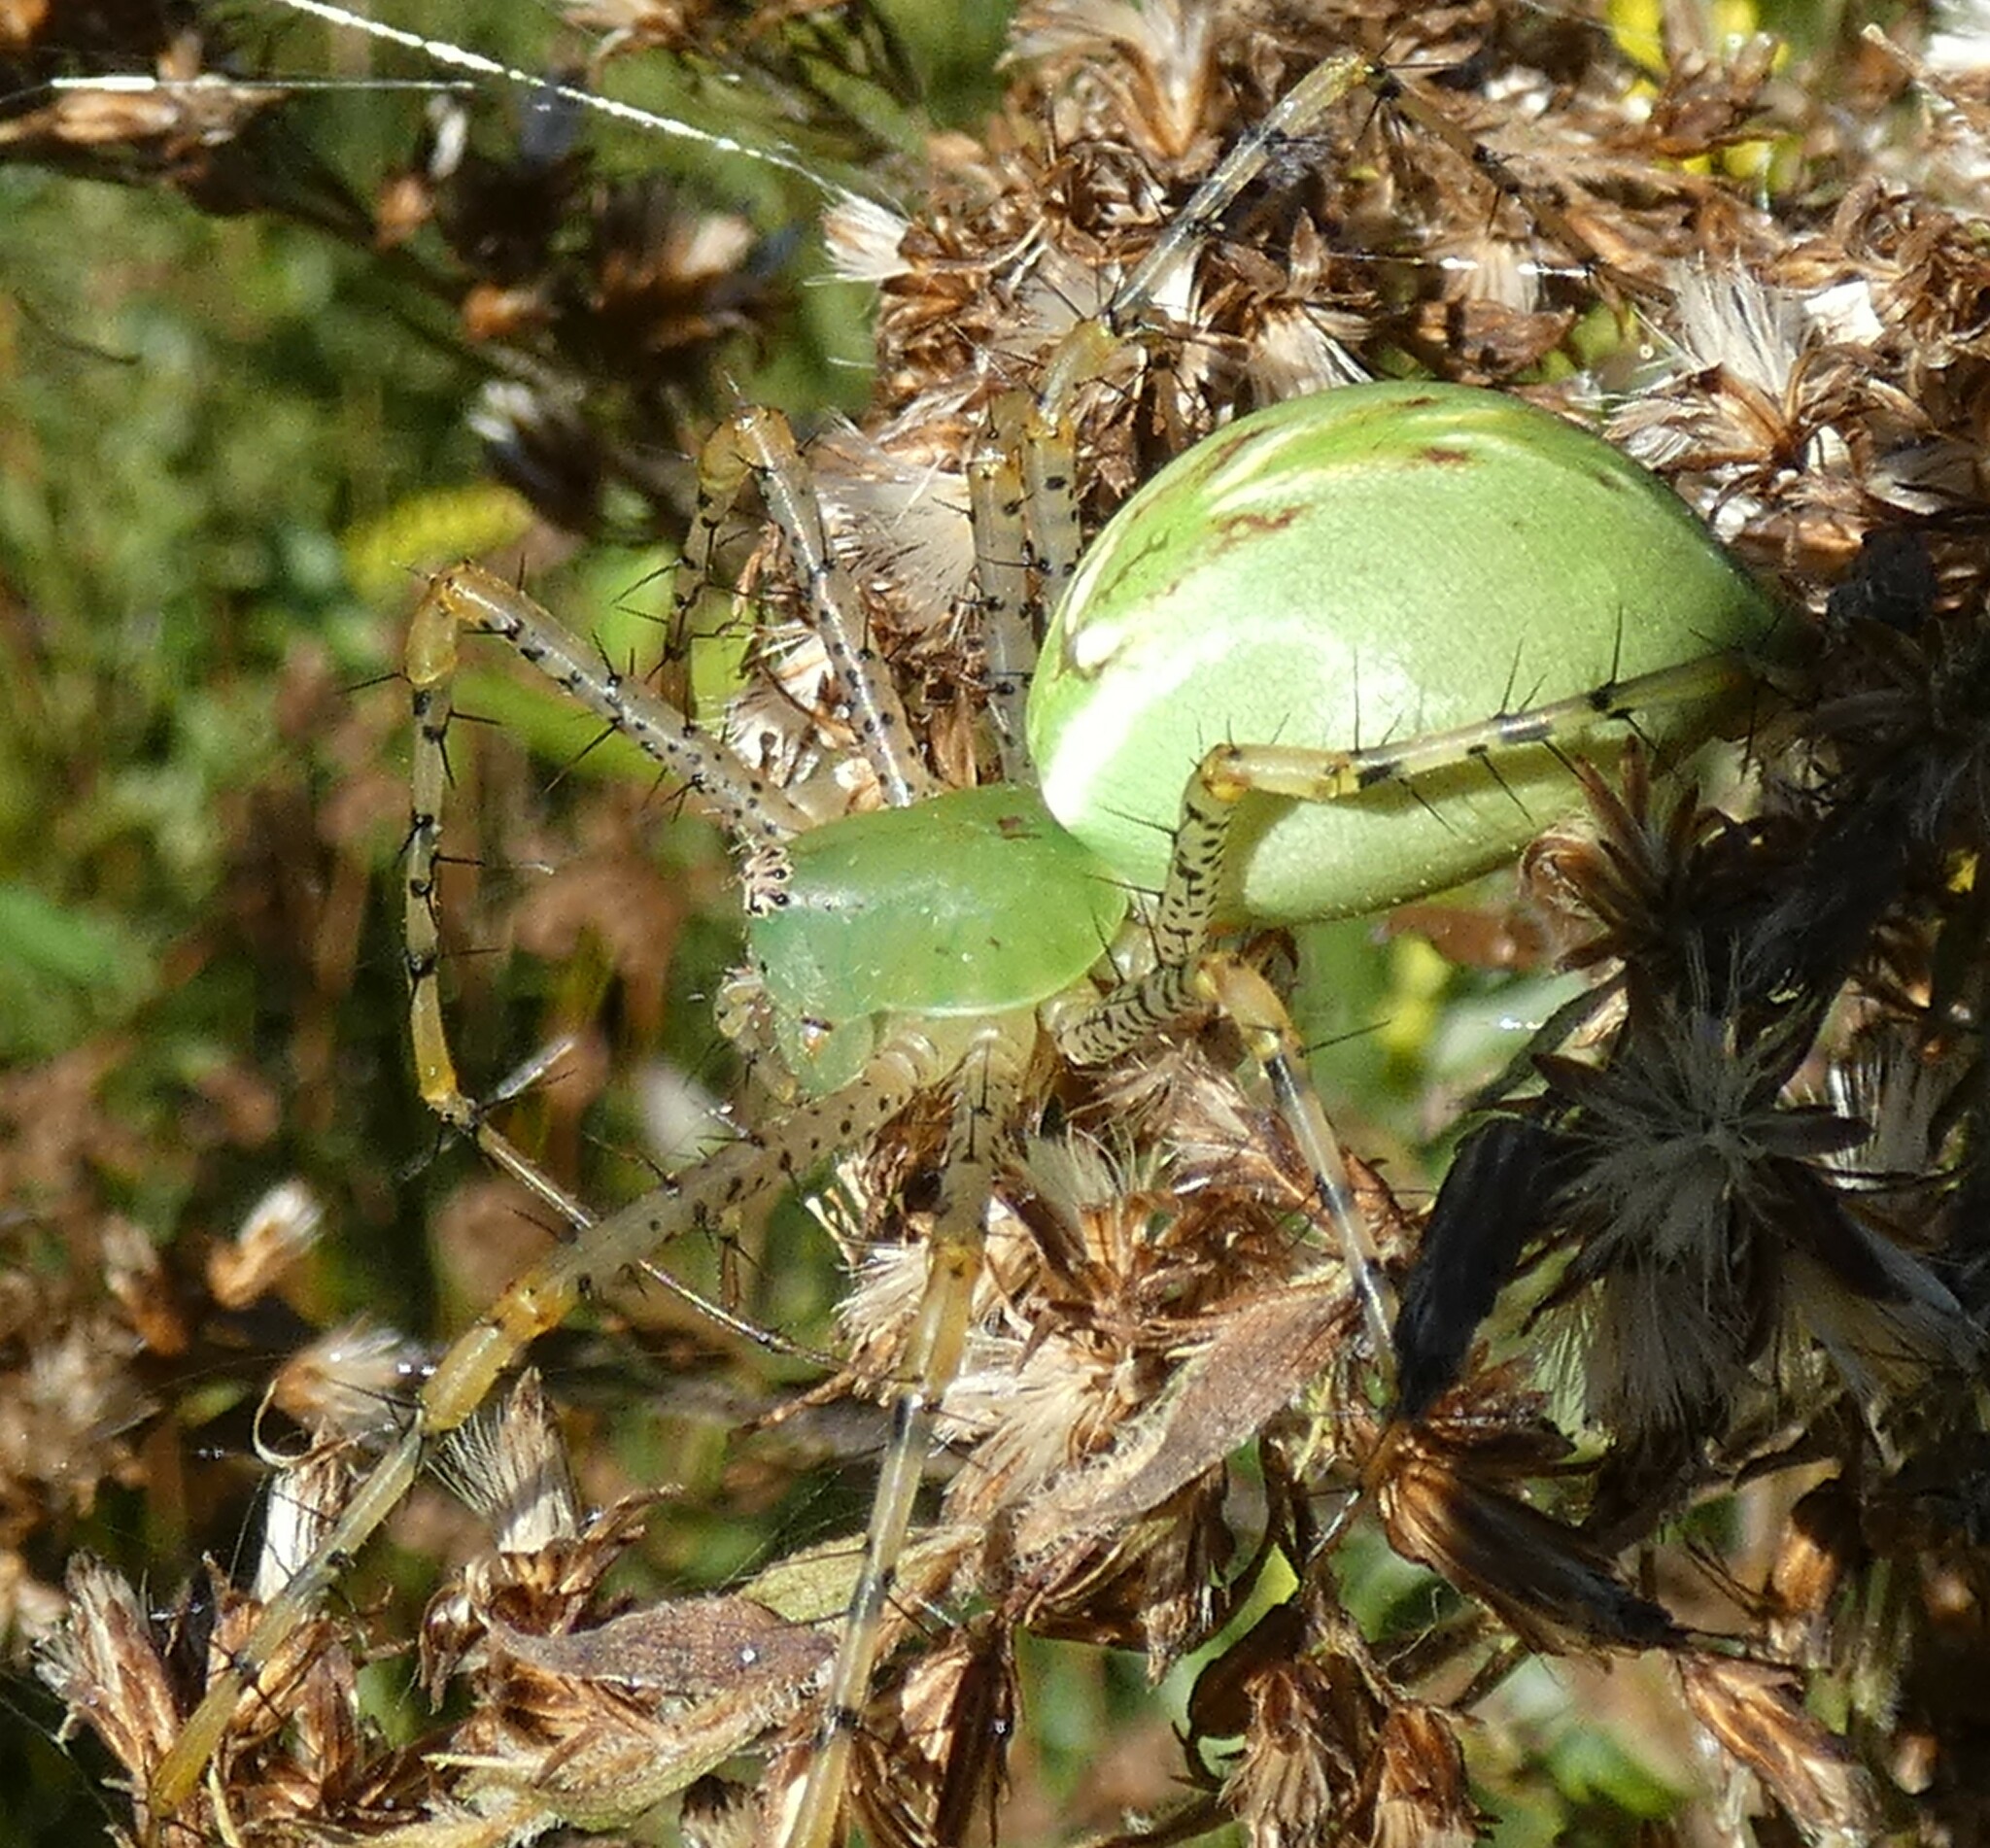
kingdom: Animalia
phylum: Arthropoda
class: Arachnida
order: Araneae
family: Oxyopidae
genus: Peucetia
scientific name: Peucetia viridans
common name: Lynx spiders
